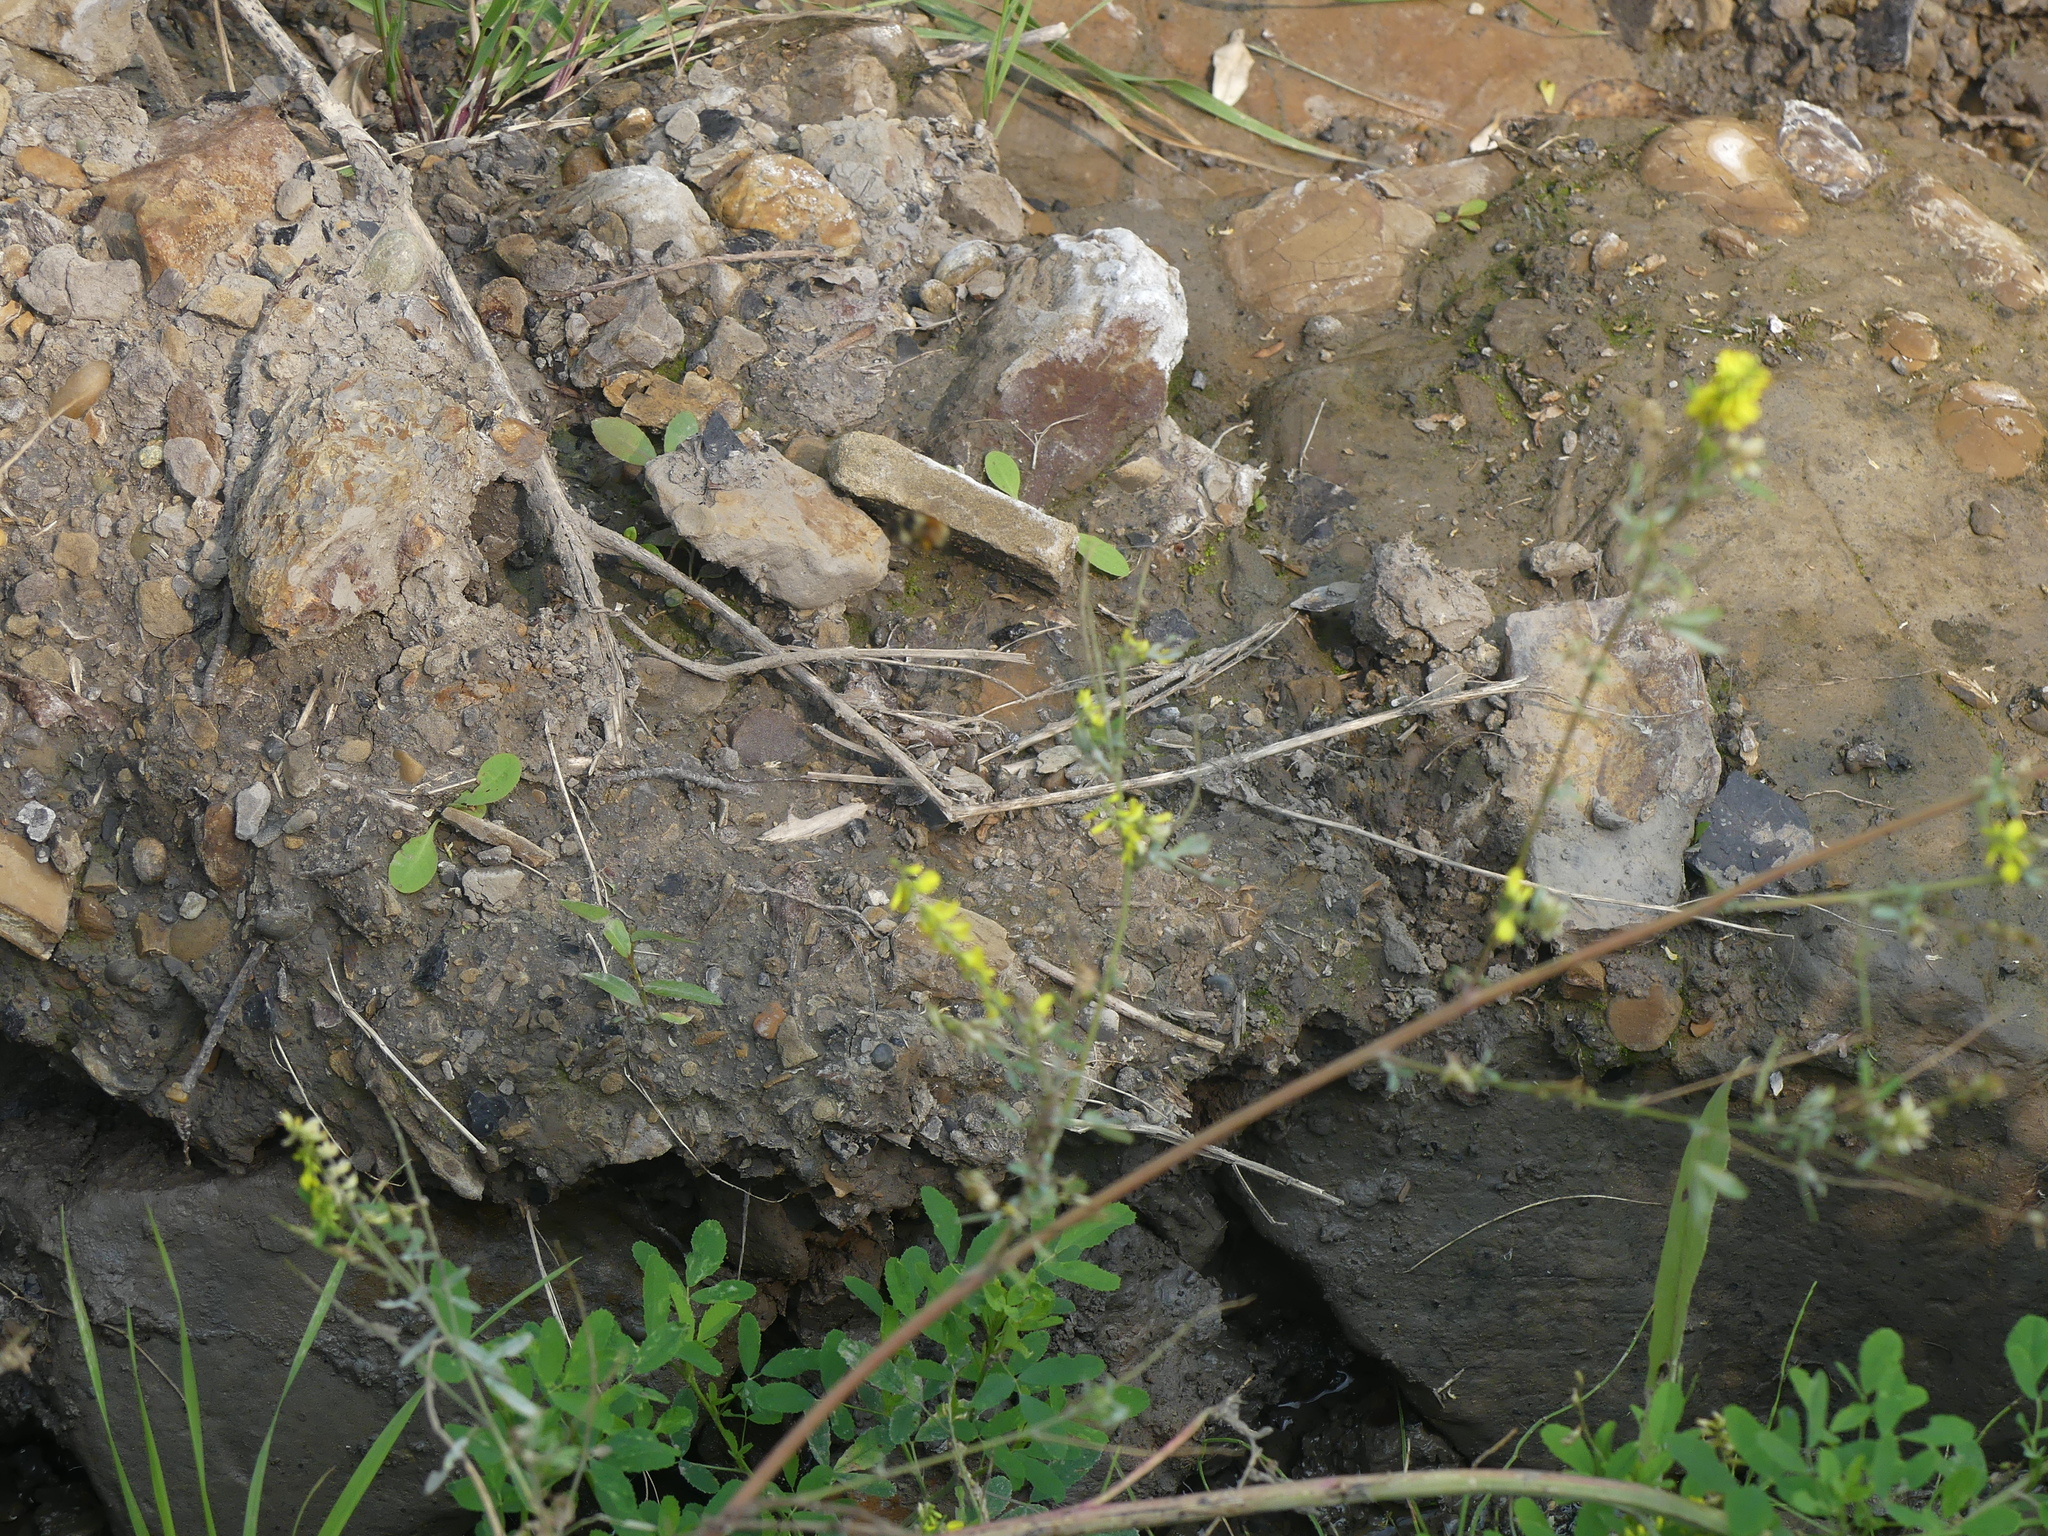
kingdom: Plantae
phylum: Tracheophyta
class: Magnoliopsida
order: Fabales
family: Fabaceae
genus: Melilotus
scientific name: Melilotus officinalis
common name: Sweetclover
